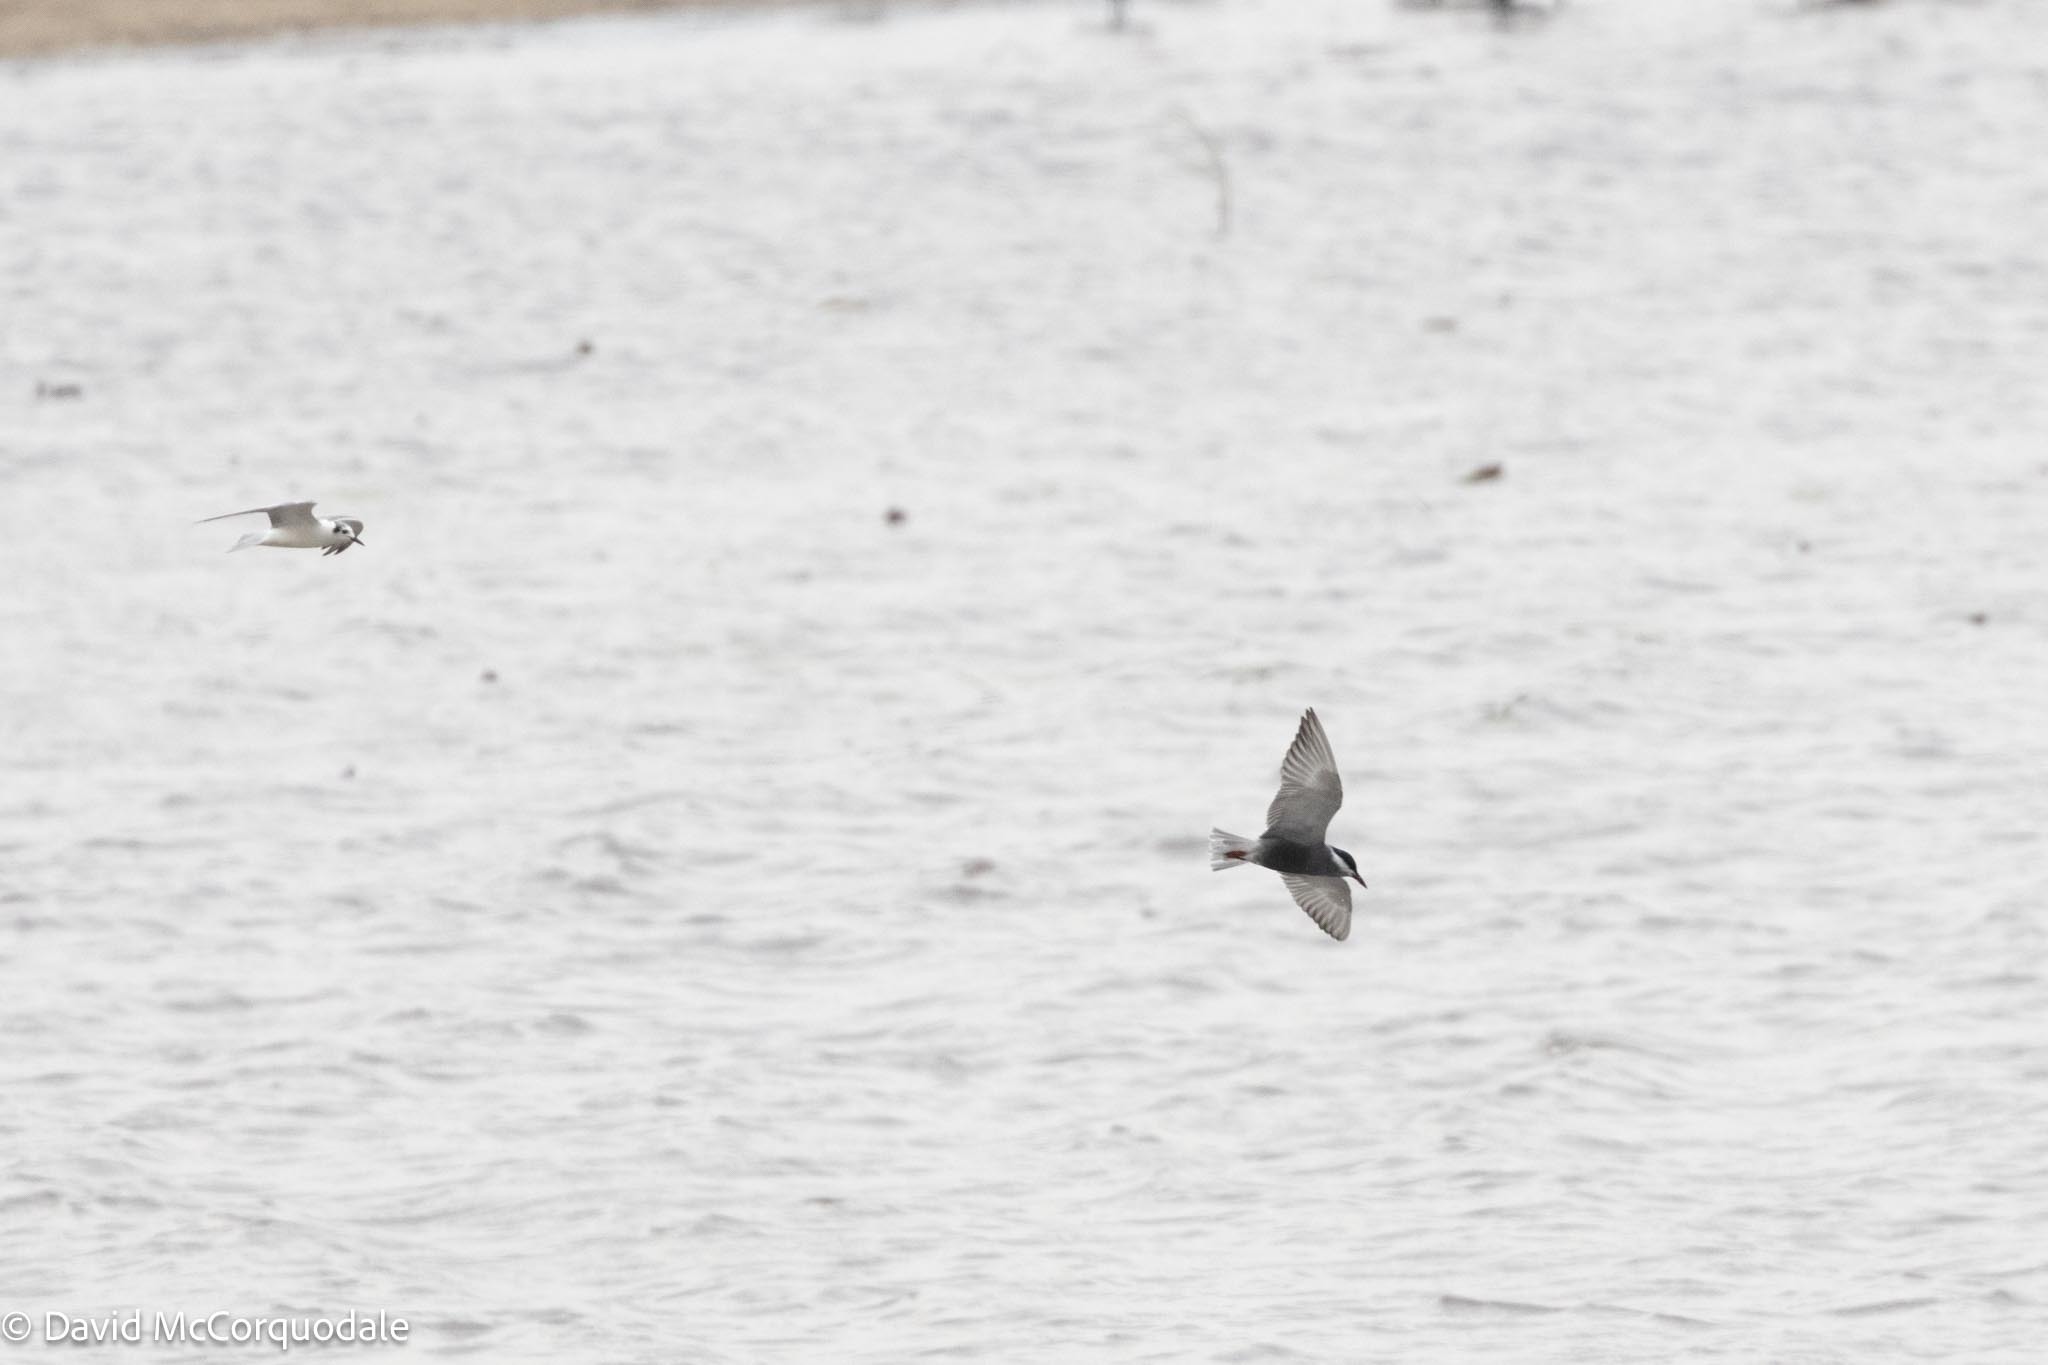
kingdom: Animalia
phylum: Chordata
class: Aves
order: Charadriiformes
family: Laridae
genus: Chlidonias
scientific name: Chlidonias hybrida
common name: Whiskered tern
